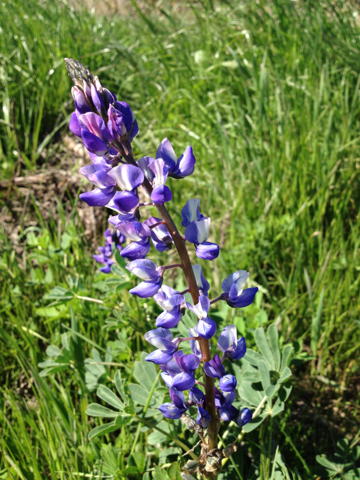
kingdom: Plantae
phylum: Tracheophyta
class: Magnoliopsida
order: Fabales
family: Fabaceae
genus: Lupinus
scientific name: Lupinus succulentus
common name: Arroyo lupine
